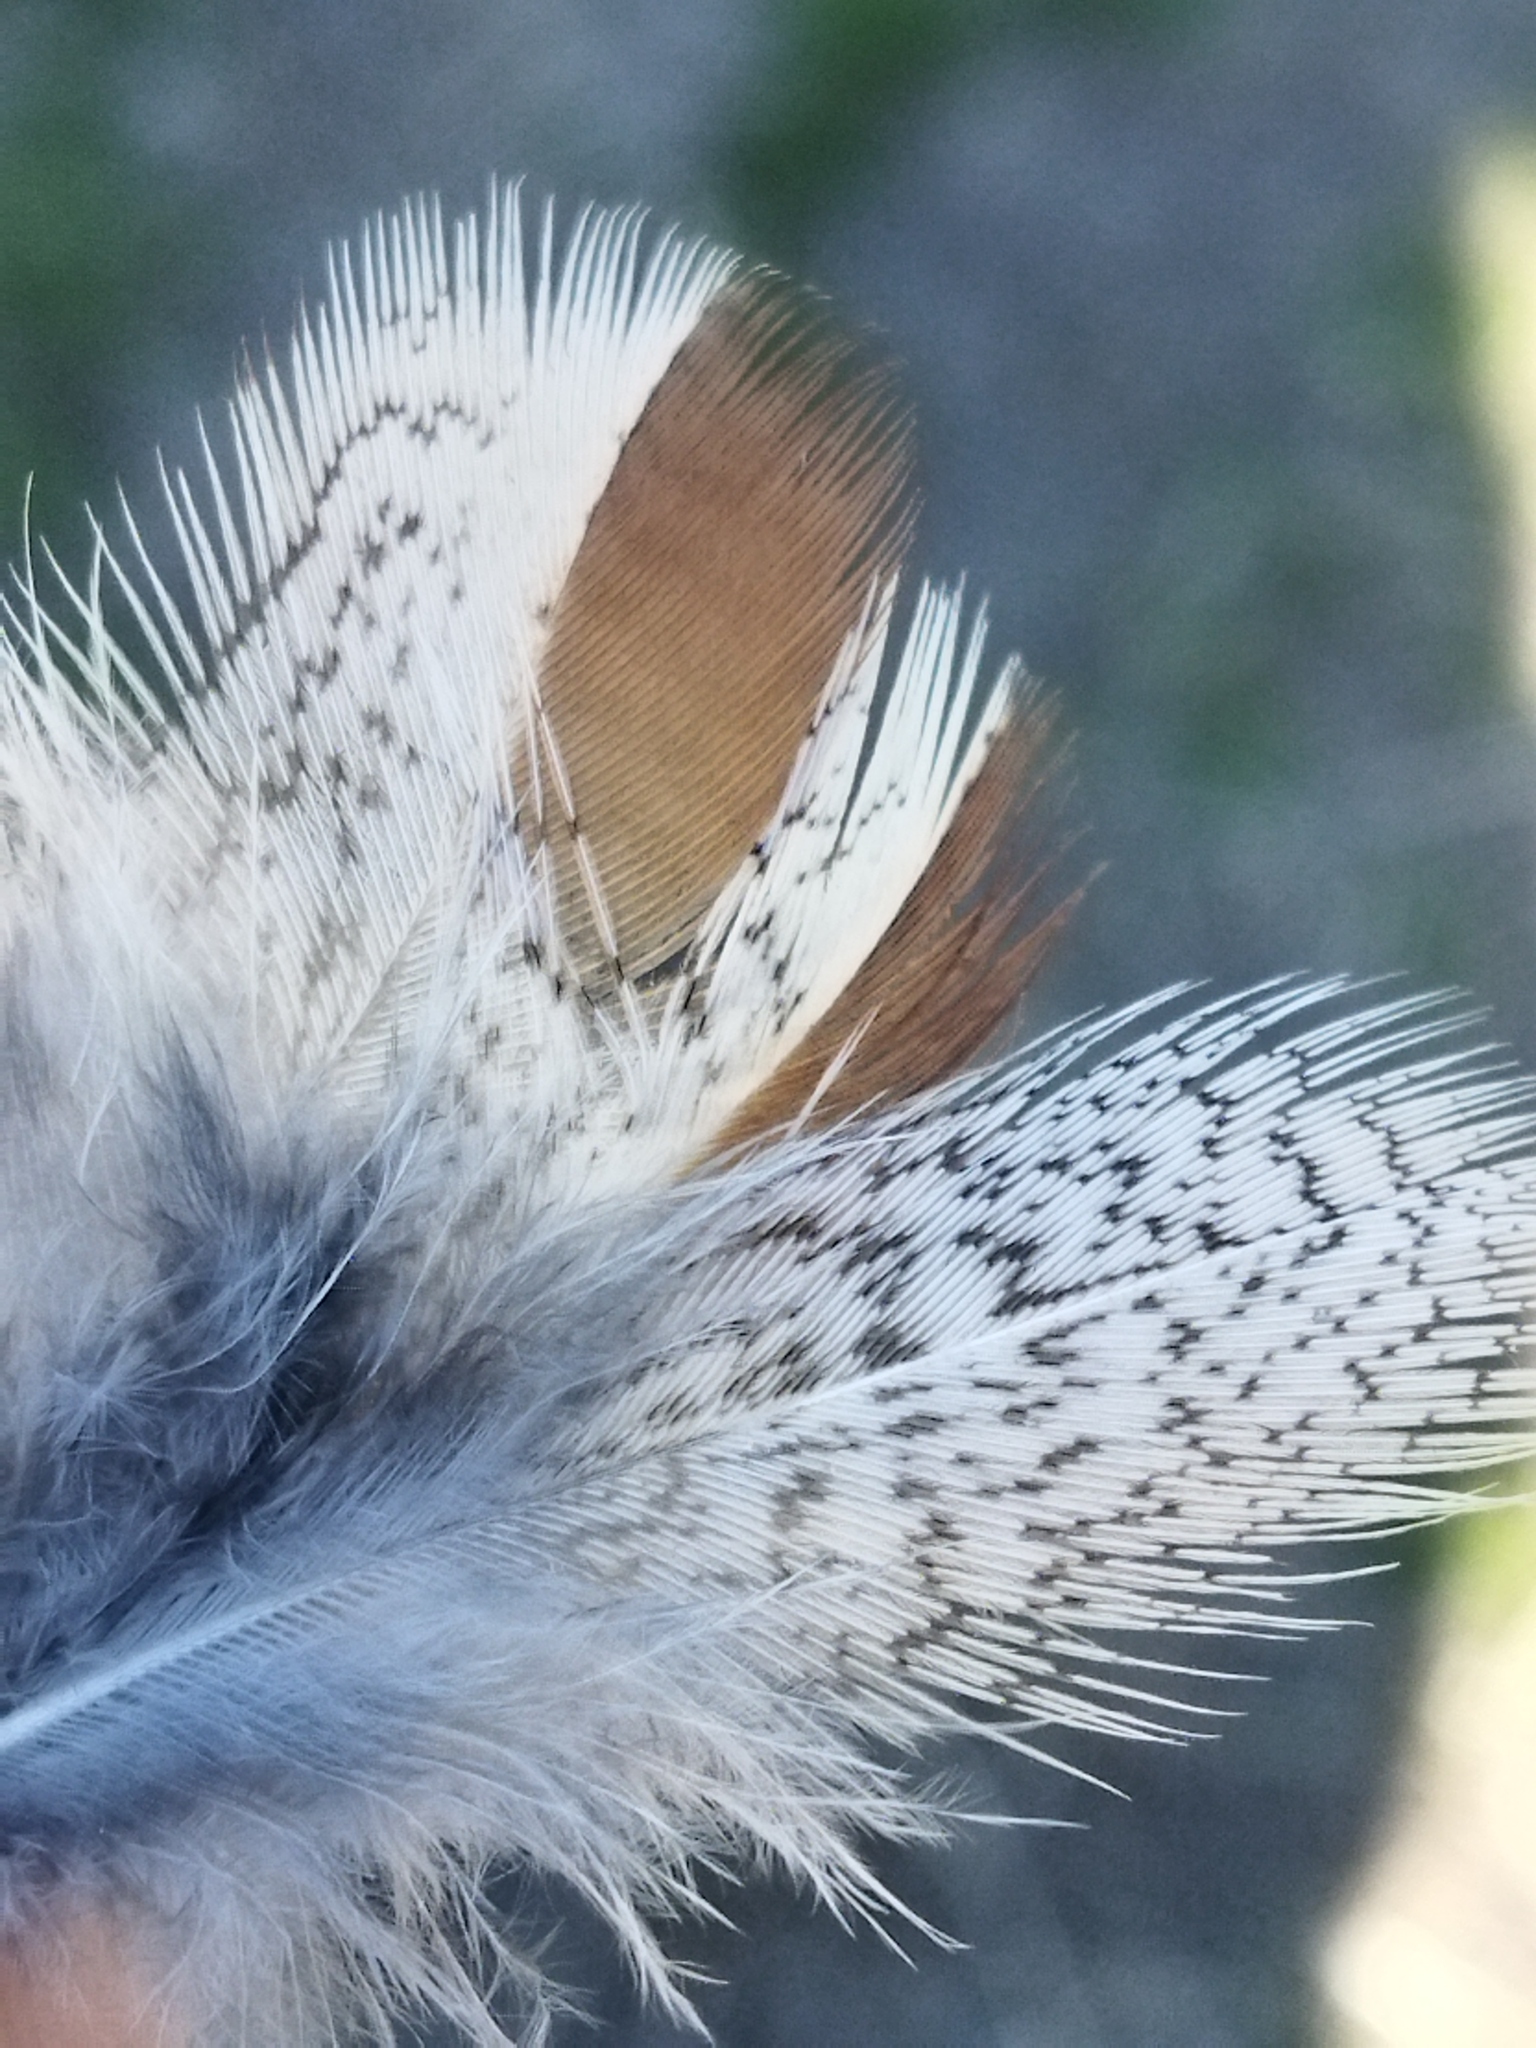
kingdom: Animalia
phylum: Chordata
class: Aves
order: Galliformes
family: Phasianidae
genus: Perdix
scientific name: Perdix perdix
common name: Grey partridge
